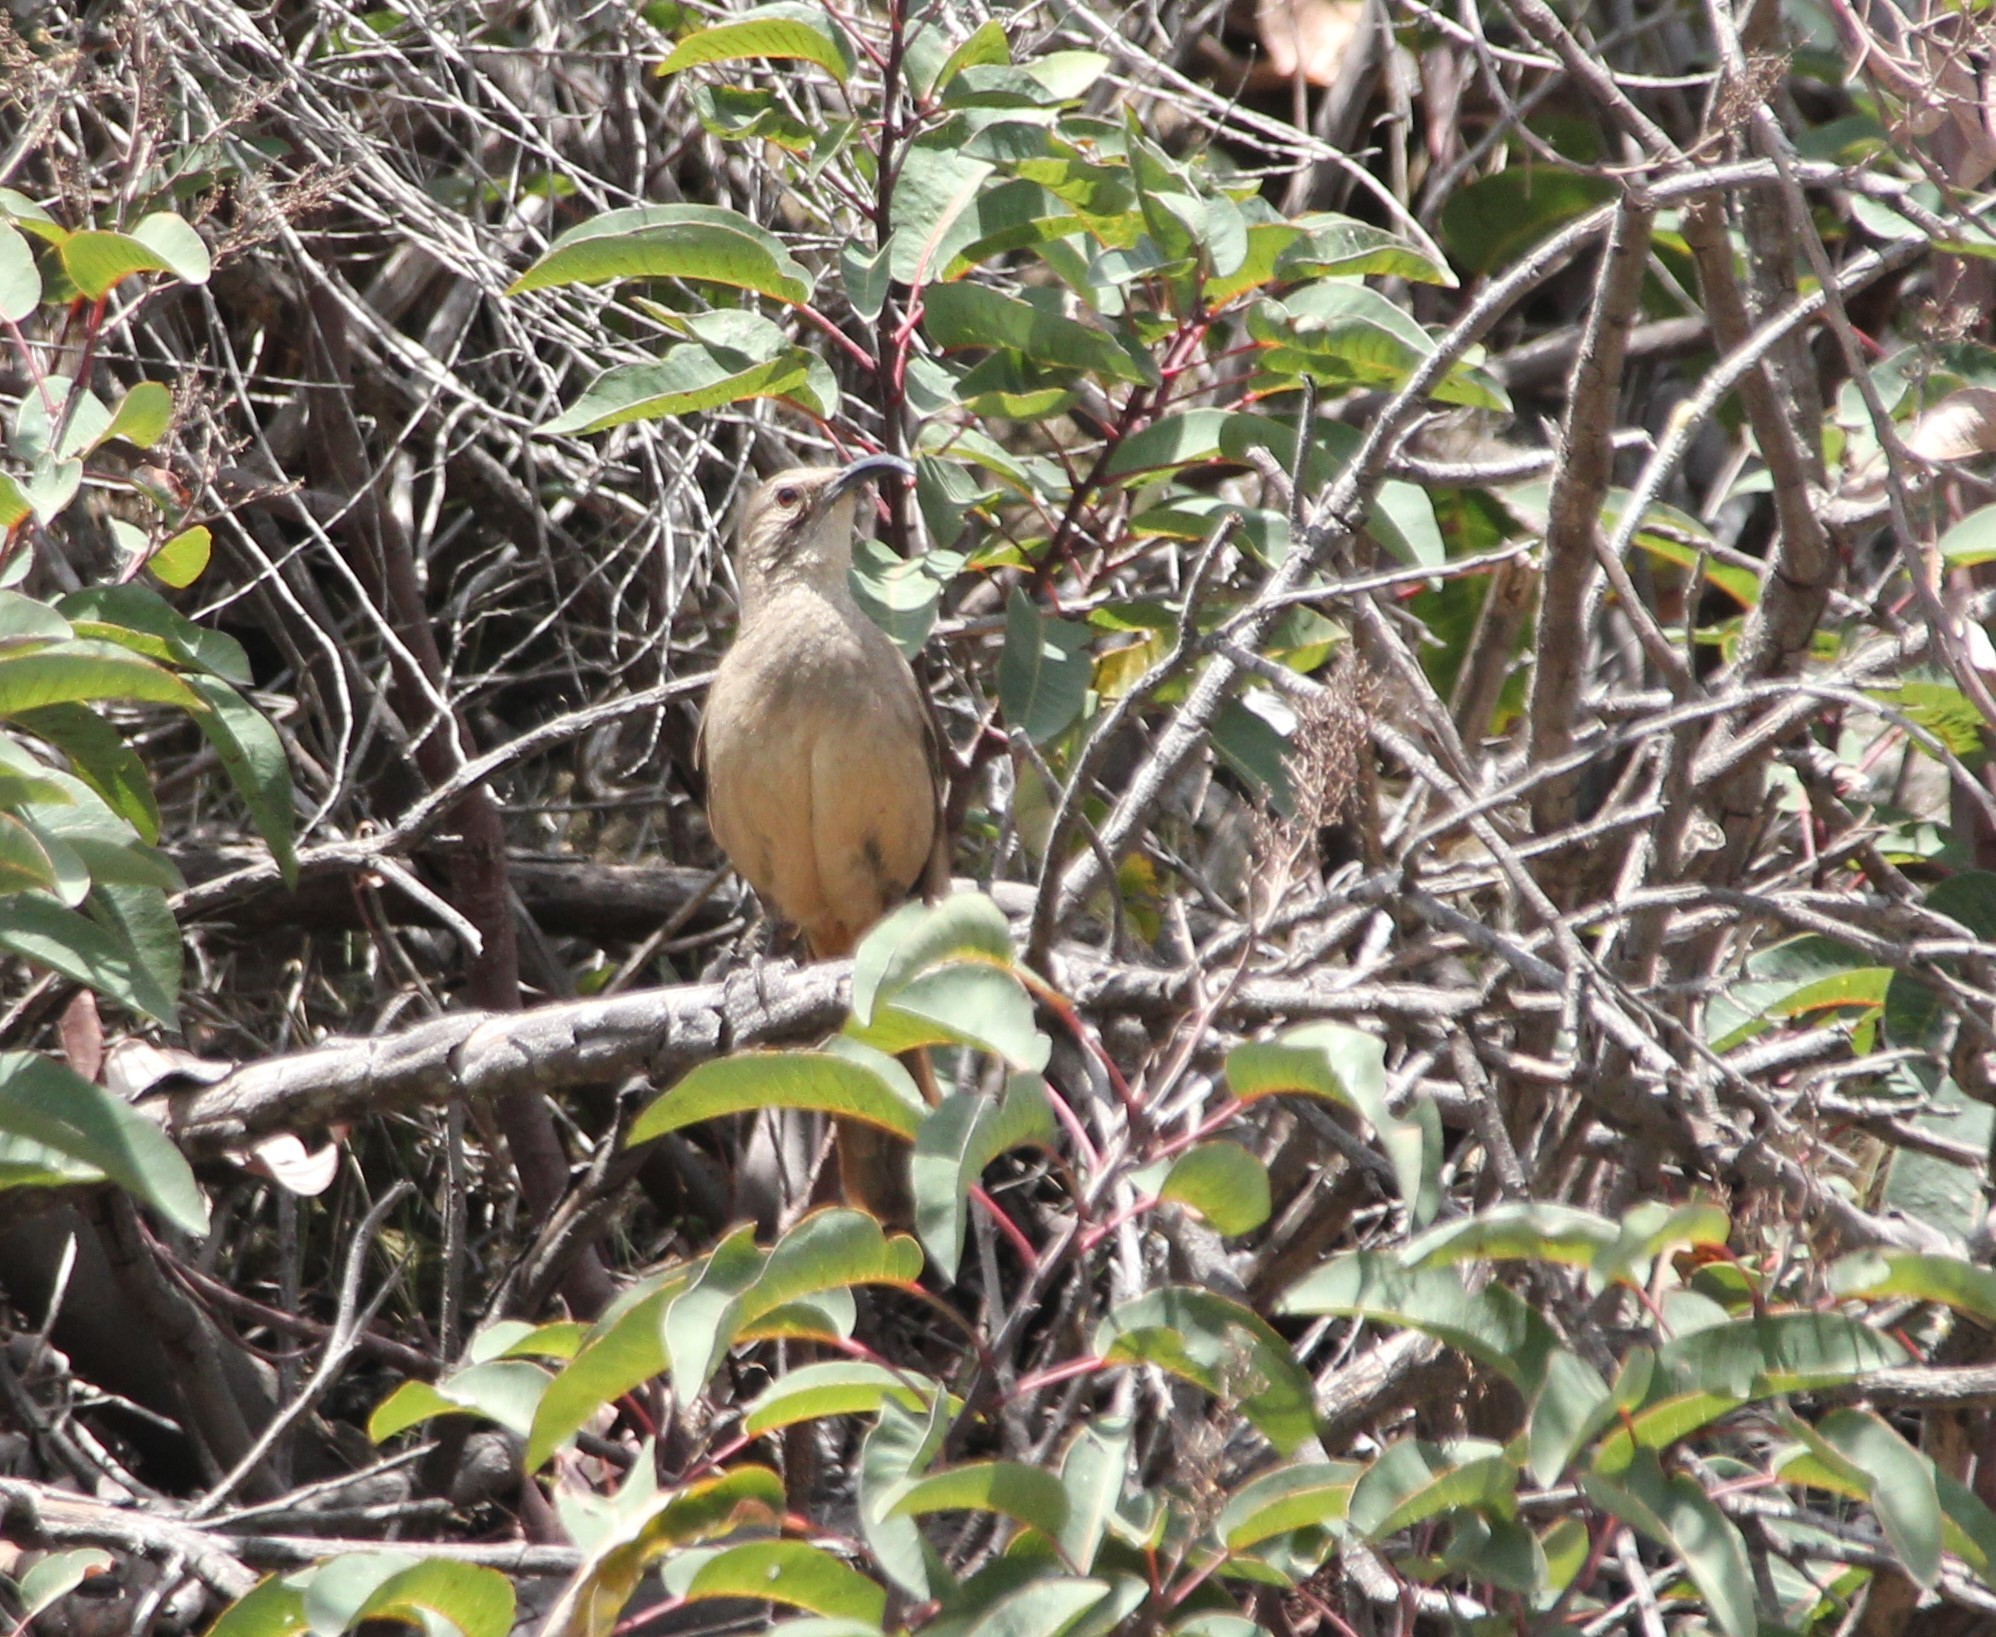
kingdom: Animalia
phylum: Chordata
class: Aves
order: Passeriformes
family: Mimidae
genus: Toxostoma
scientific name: Toxostoma redivivum
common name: California thrasher
